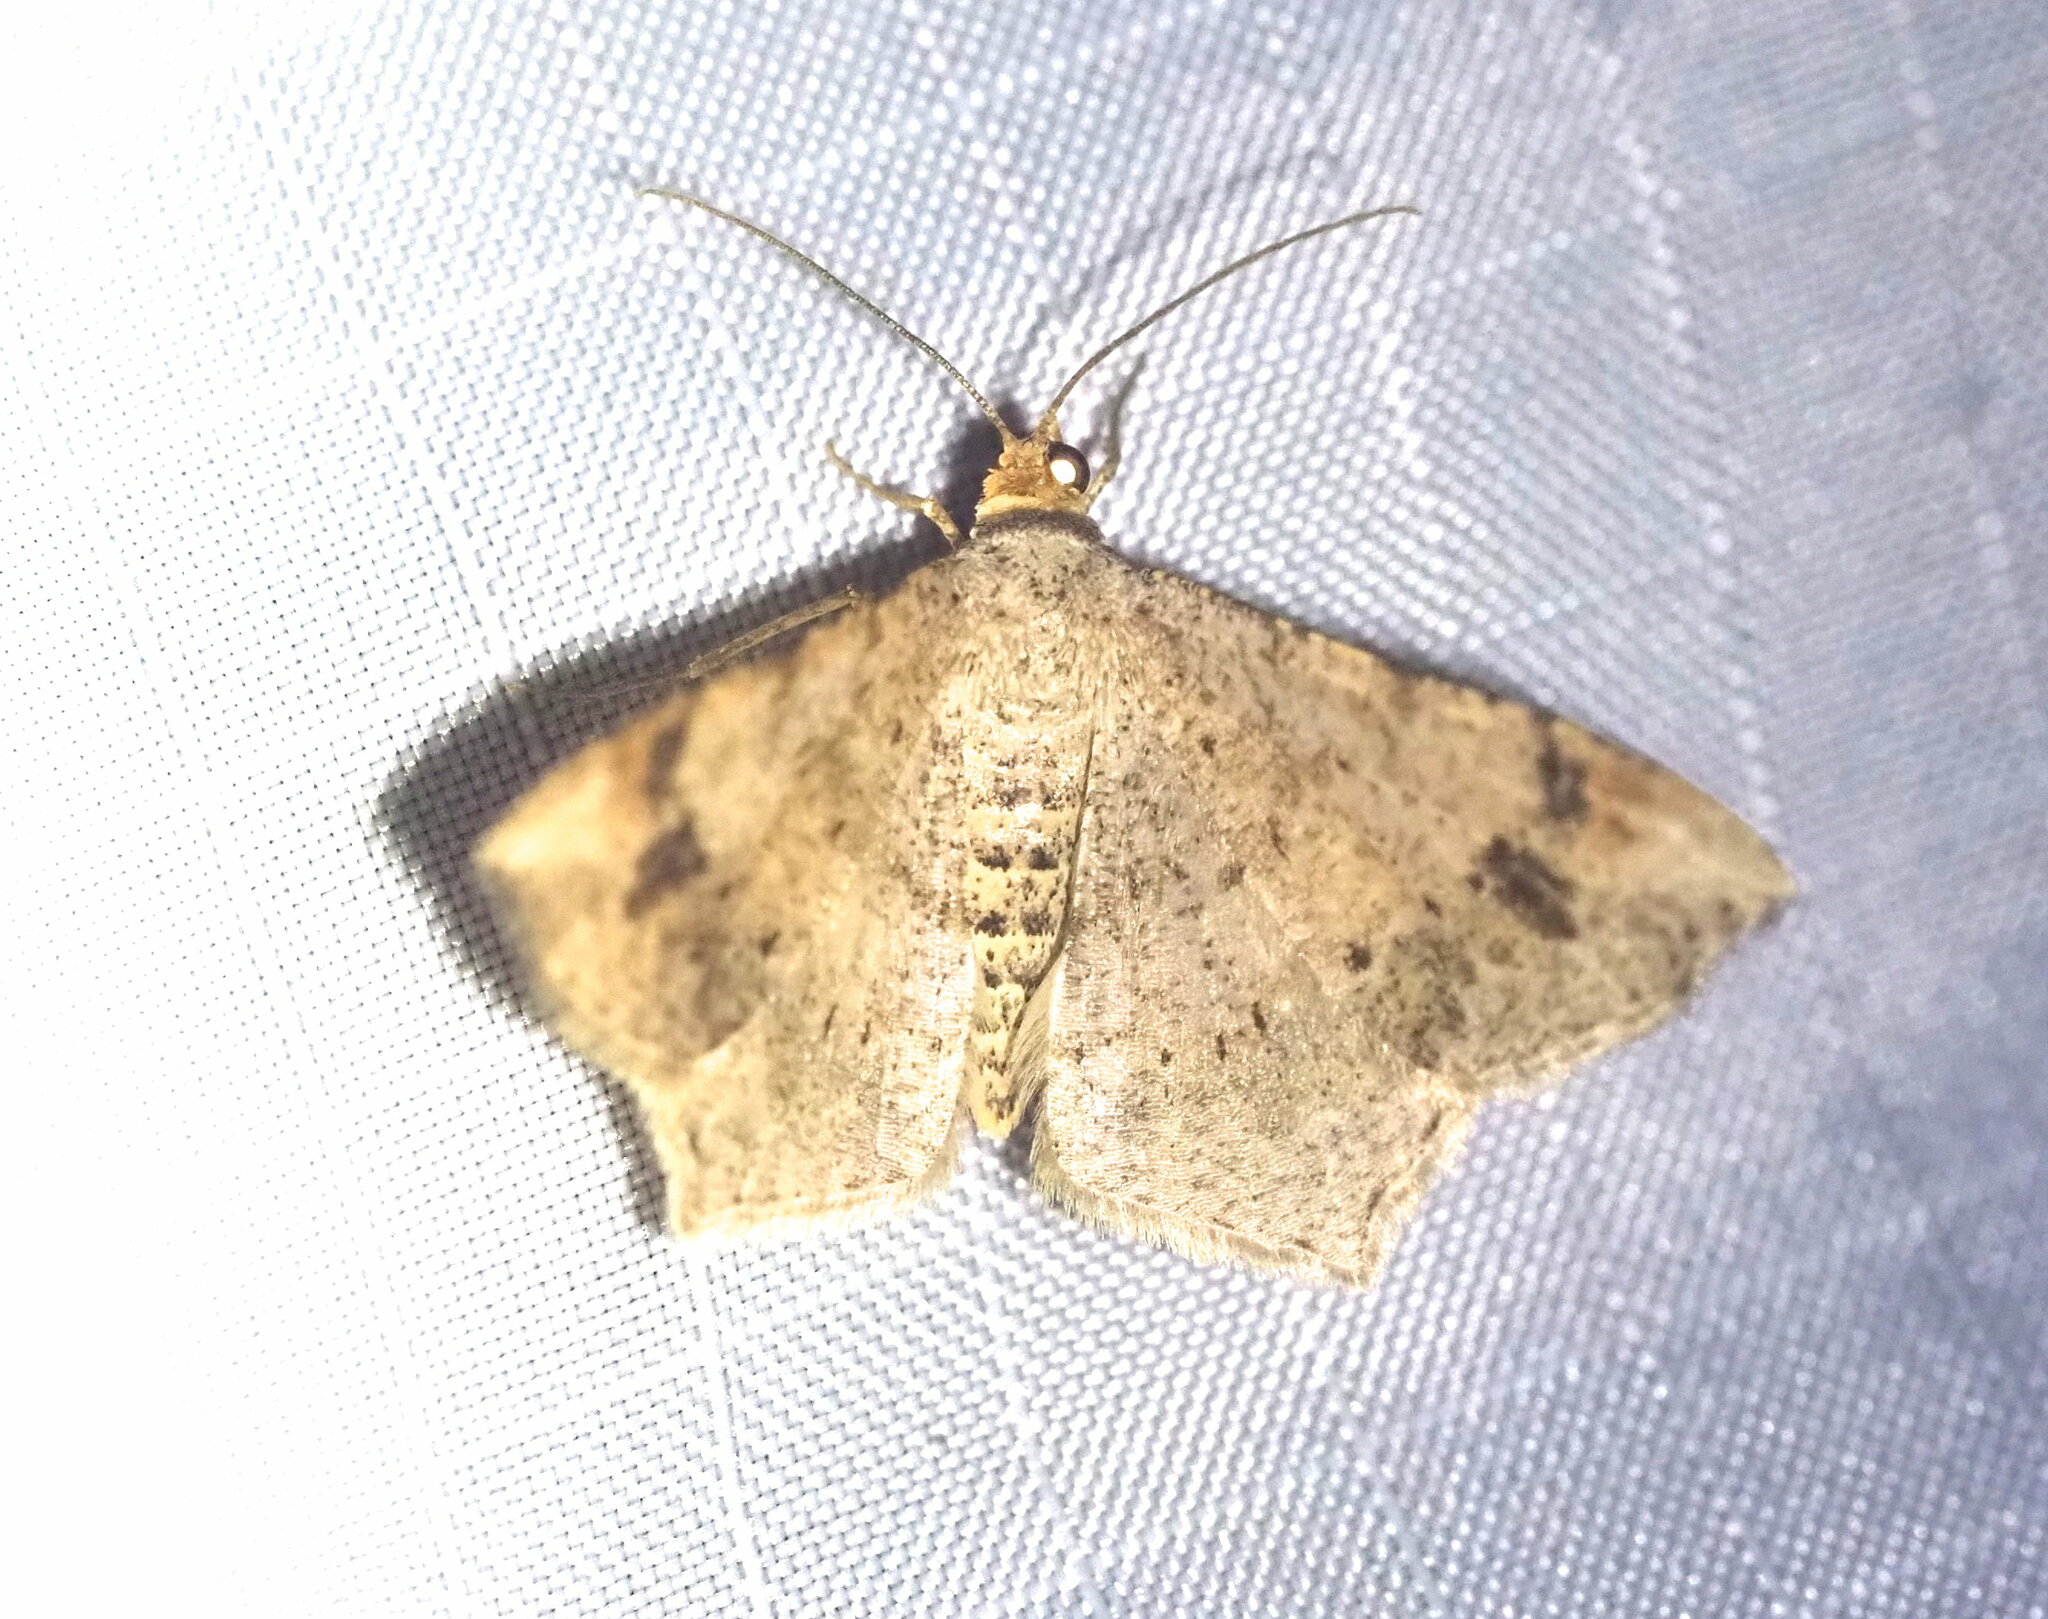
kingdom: Animalia
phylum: Arthropoda
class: Insecta
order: Lepidoptera
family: Geometridae
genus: Macaria
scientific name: Macaria abydata
